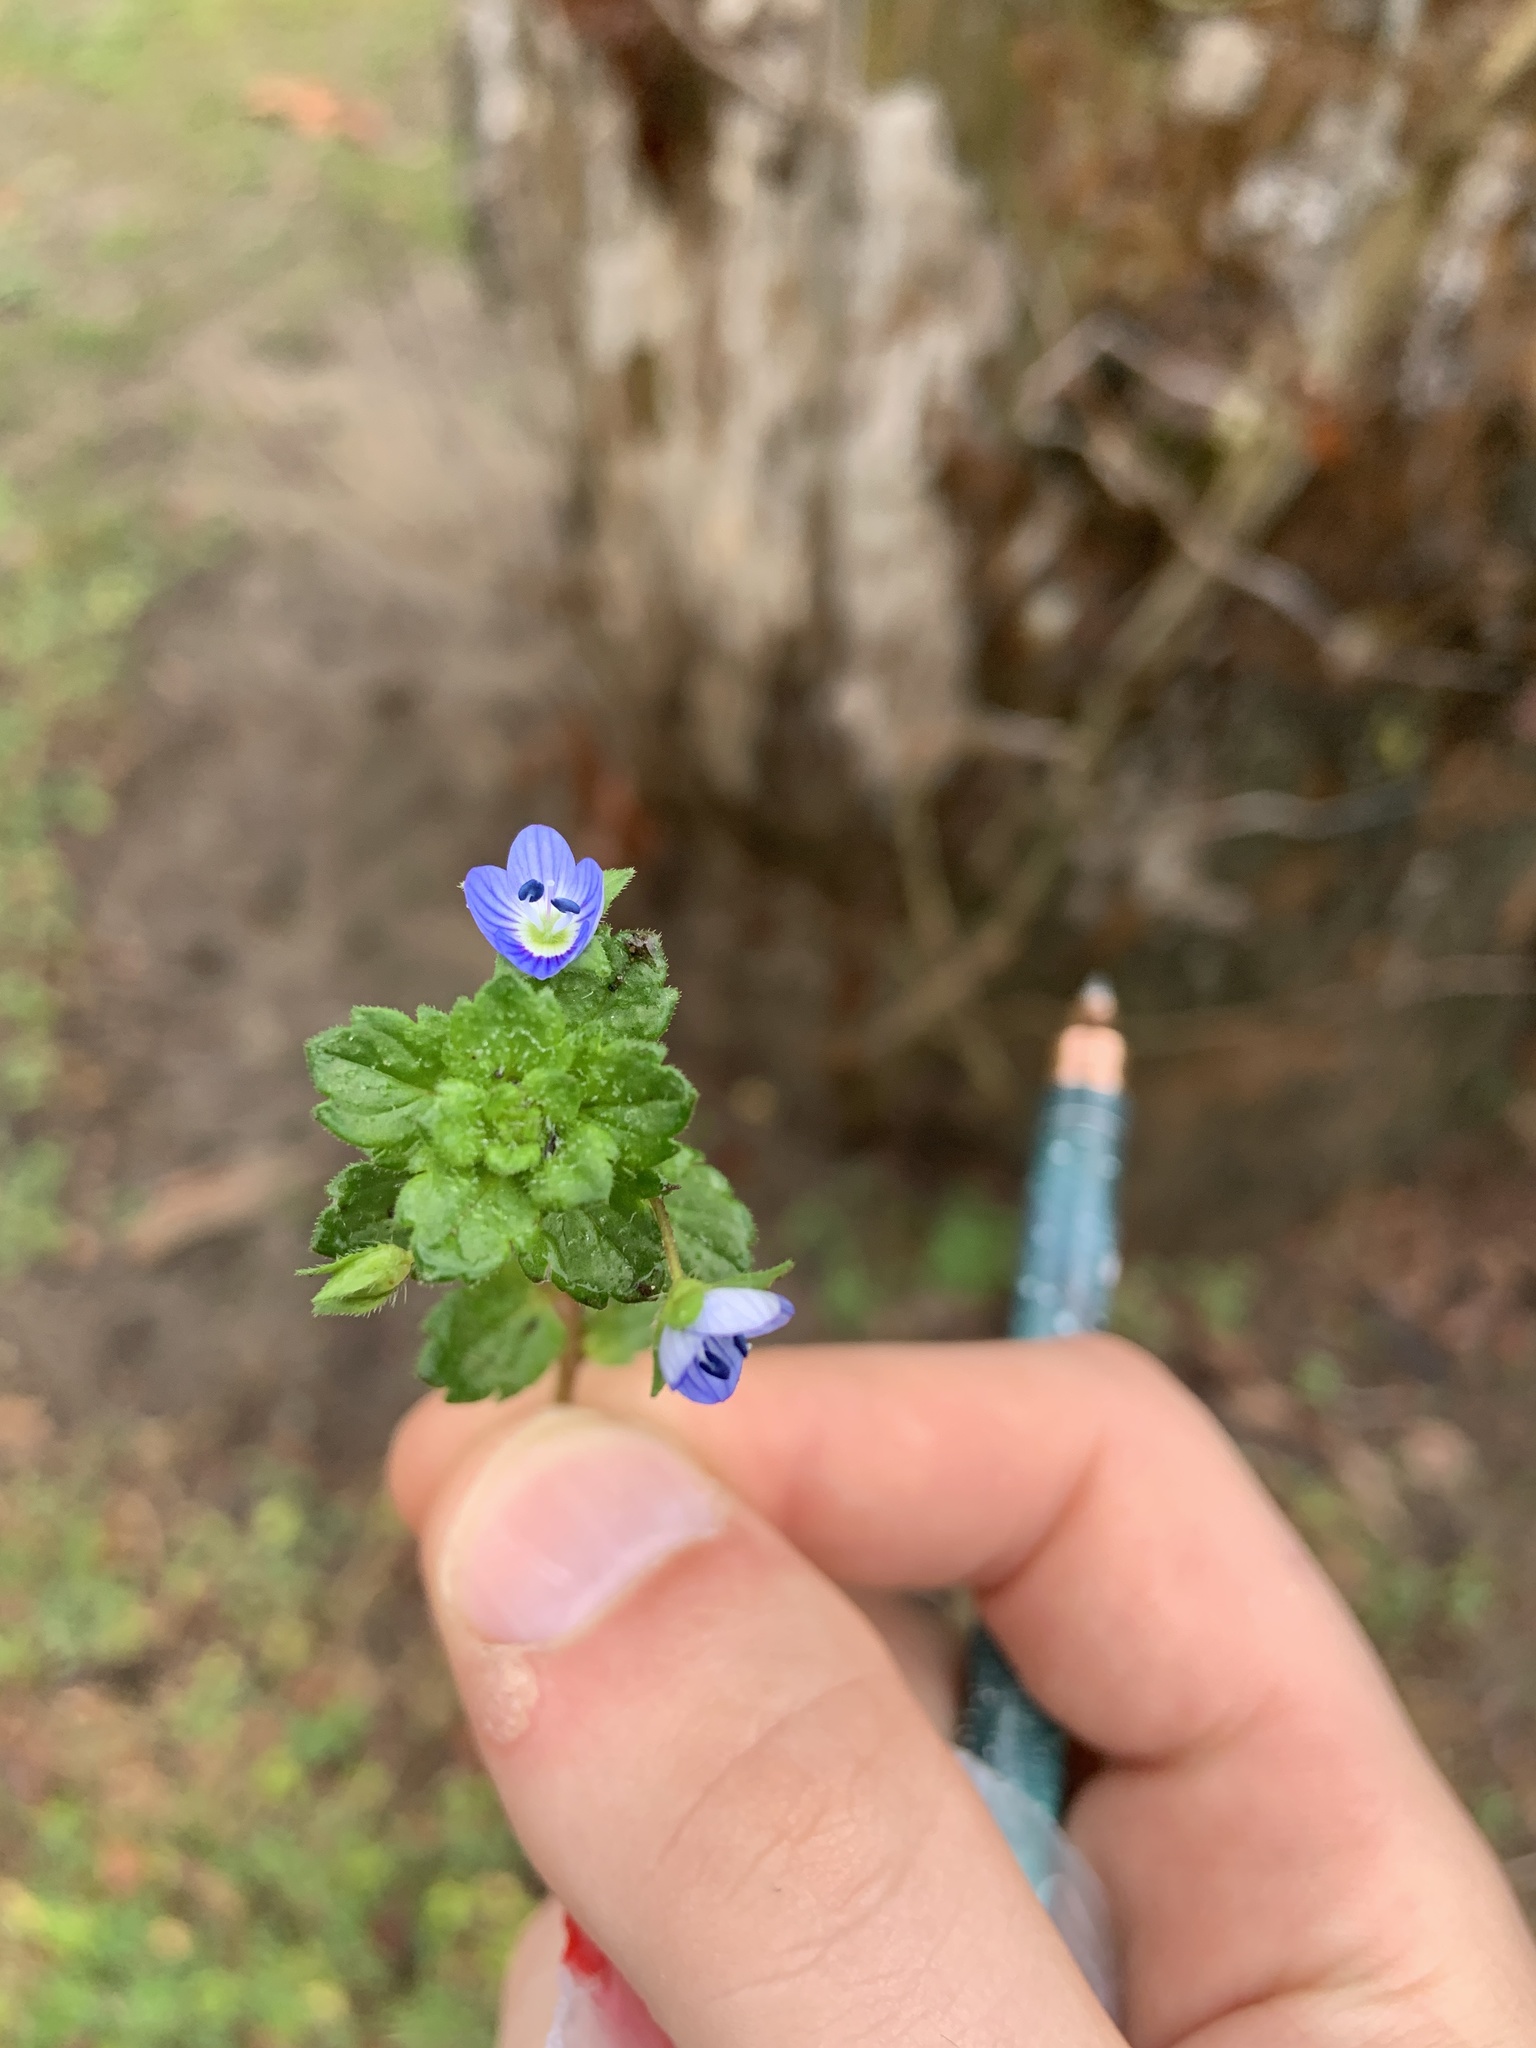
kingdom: Plantae
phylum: Tracheophyta
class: Magnoliopsida
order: Lamiales
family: Plantaginaceae
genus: Veronica
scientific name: Veronica persica
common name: Common field-speedwell
